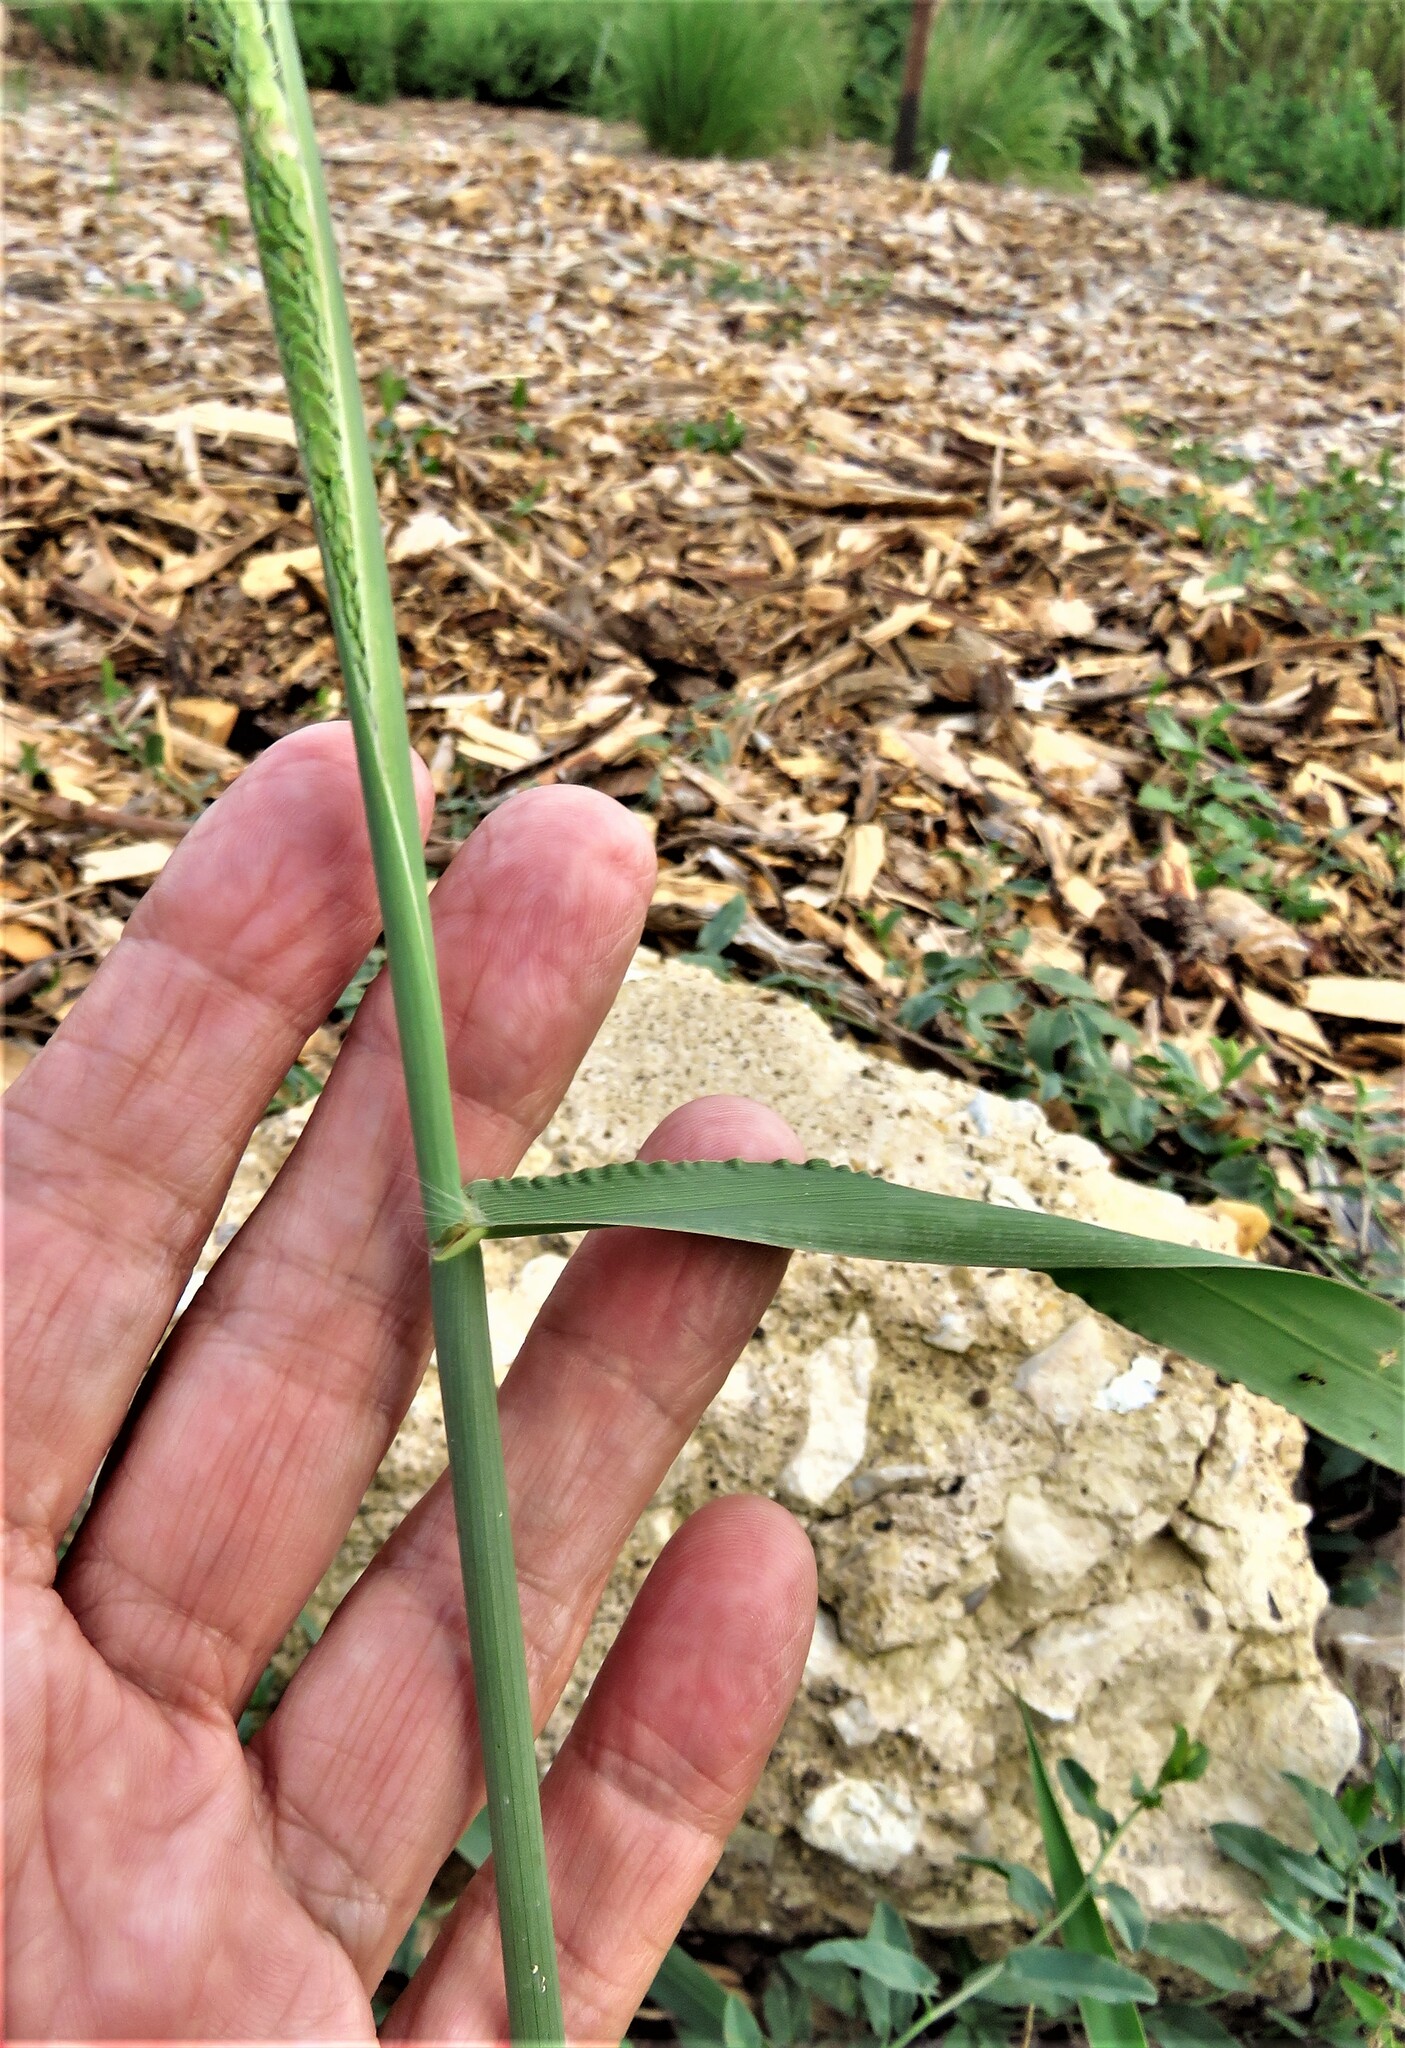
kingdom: Plantae
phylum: Tracheophyta
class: Liliopsida
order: Poales
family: Poaceae
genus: Paspalum
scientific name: Paspalum dilatatum
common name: Dallisgrass
